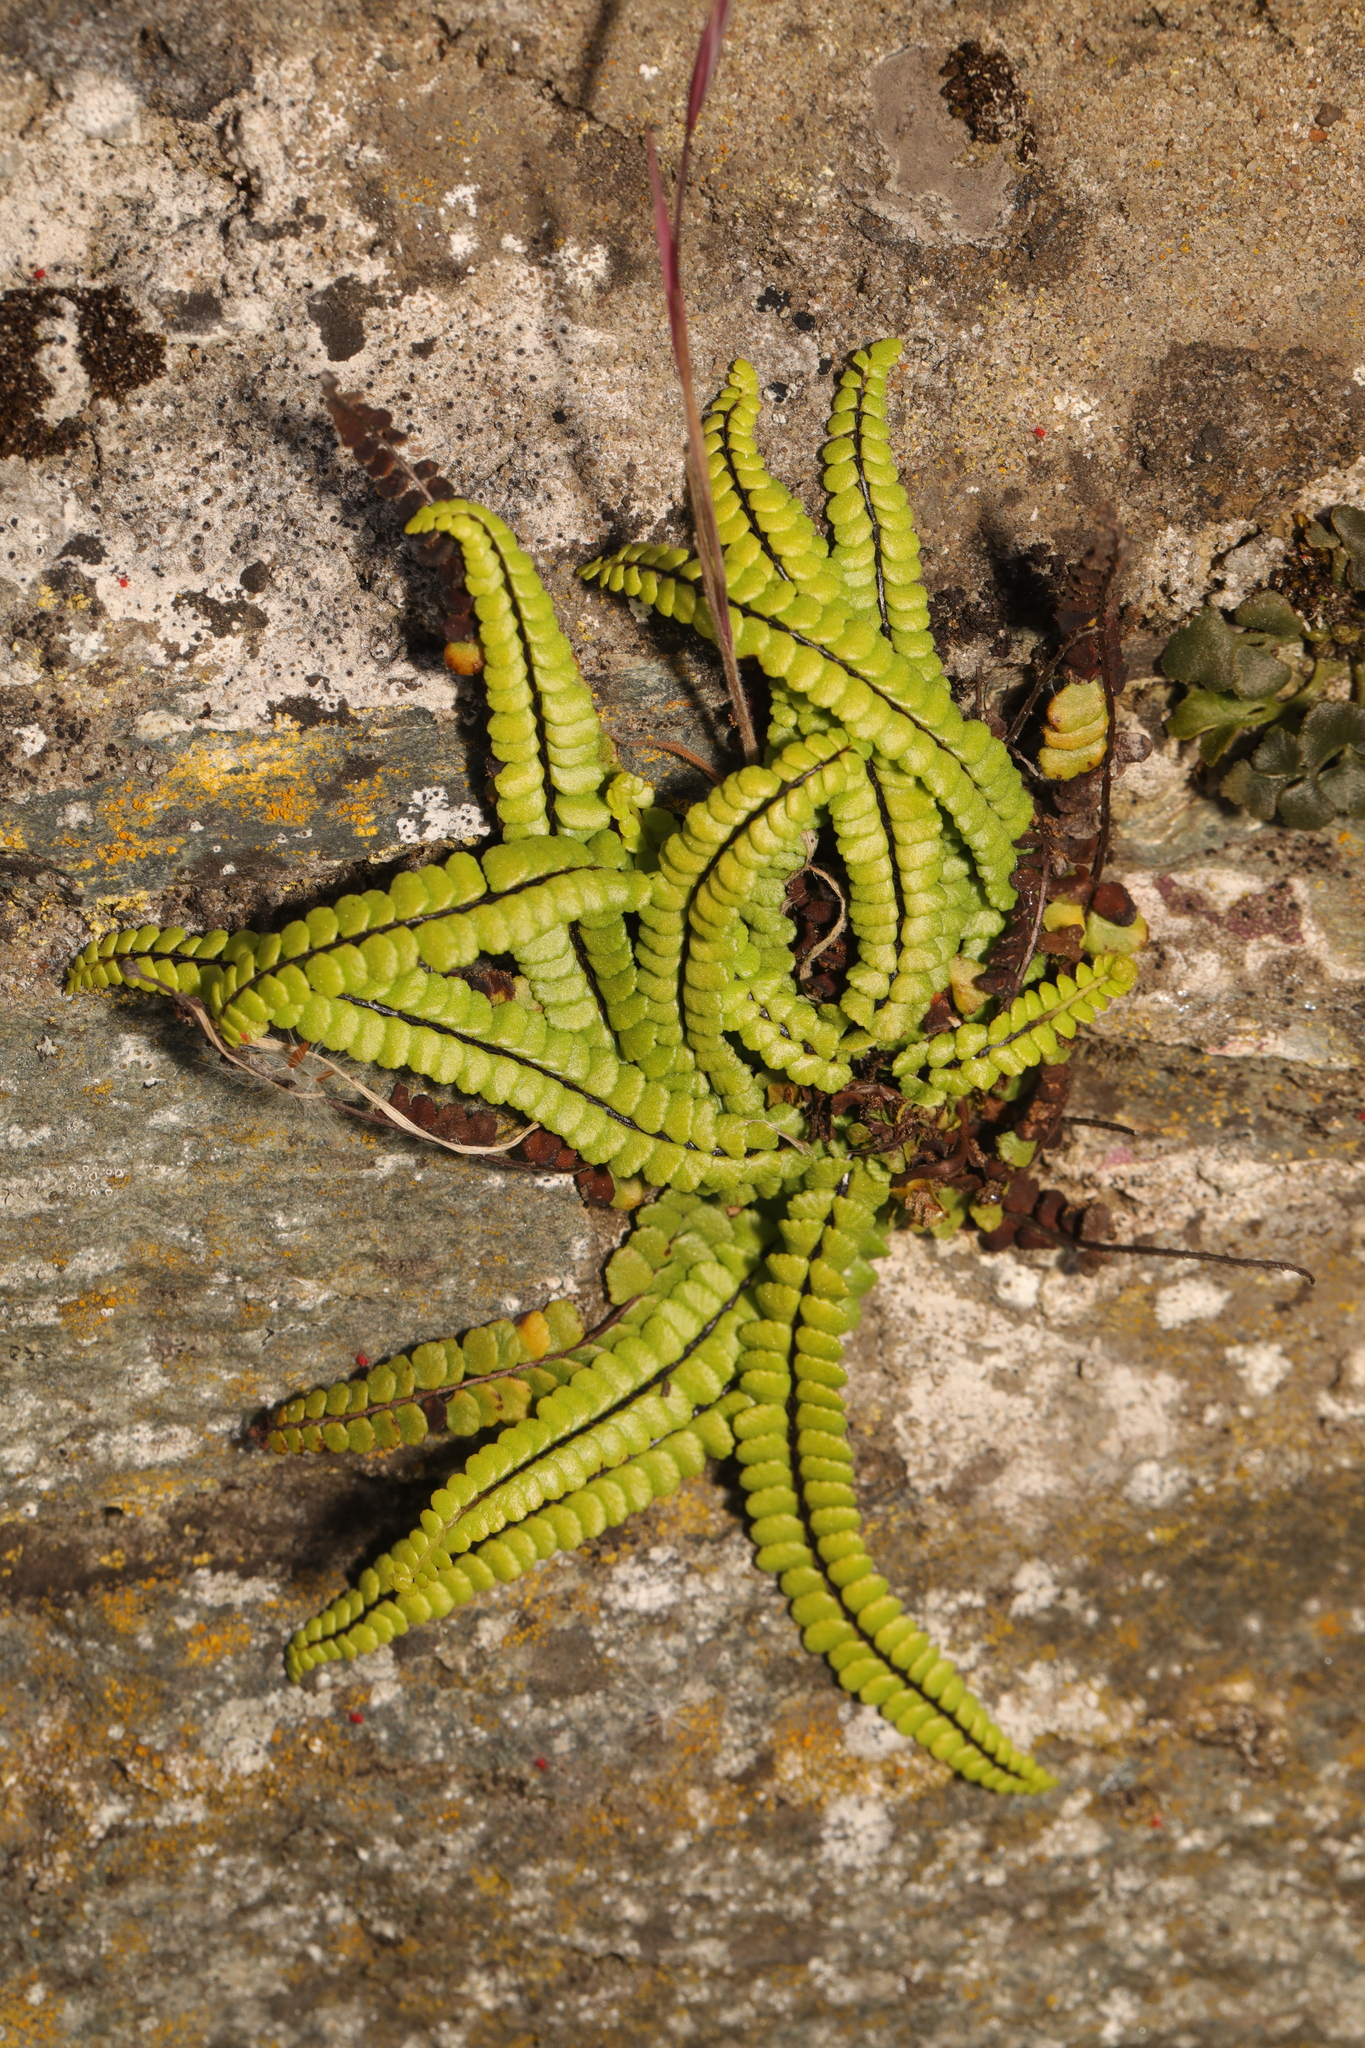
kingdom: Plantae
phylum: Tracheophyta
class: Polypodiopsida
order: Polypodiales
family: Aspleniaceae
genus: Asplenium
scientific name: Asplenium trichomanes
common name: Maidenhair spleenwort
